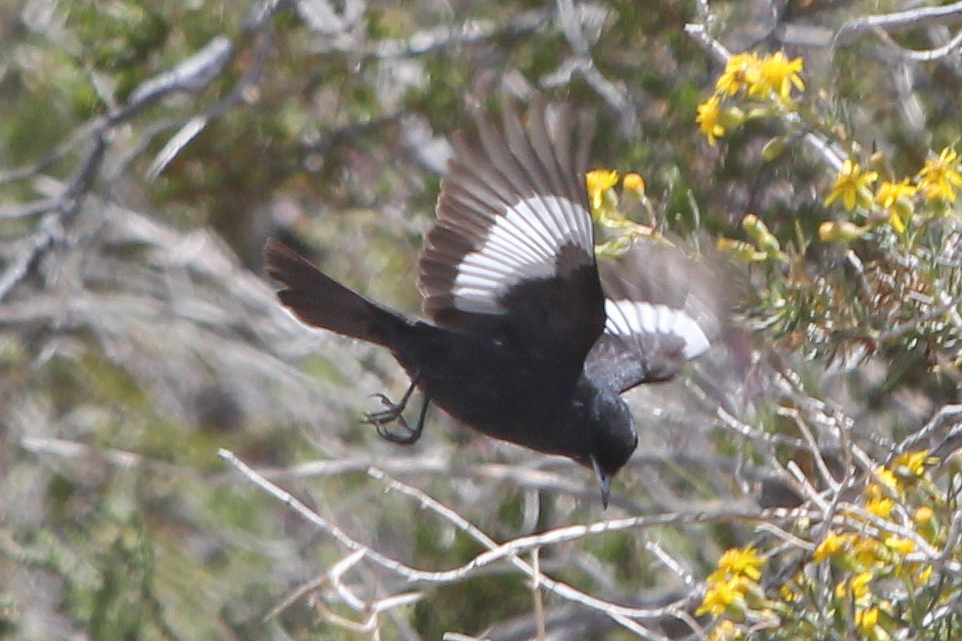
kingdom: Animalia
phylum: Chordata
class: Aves
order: Passeriformes
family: Tyrannidae
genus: Knipolegus
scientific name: Knipolegus aterrimus
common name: White-winged black tyrant
